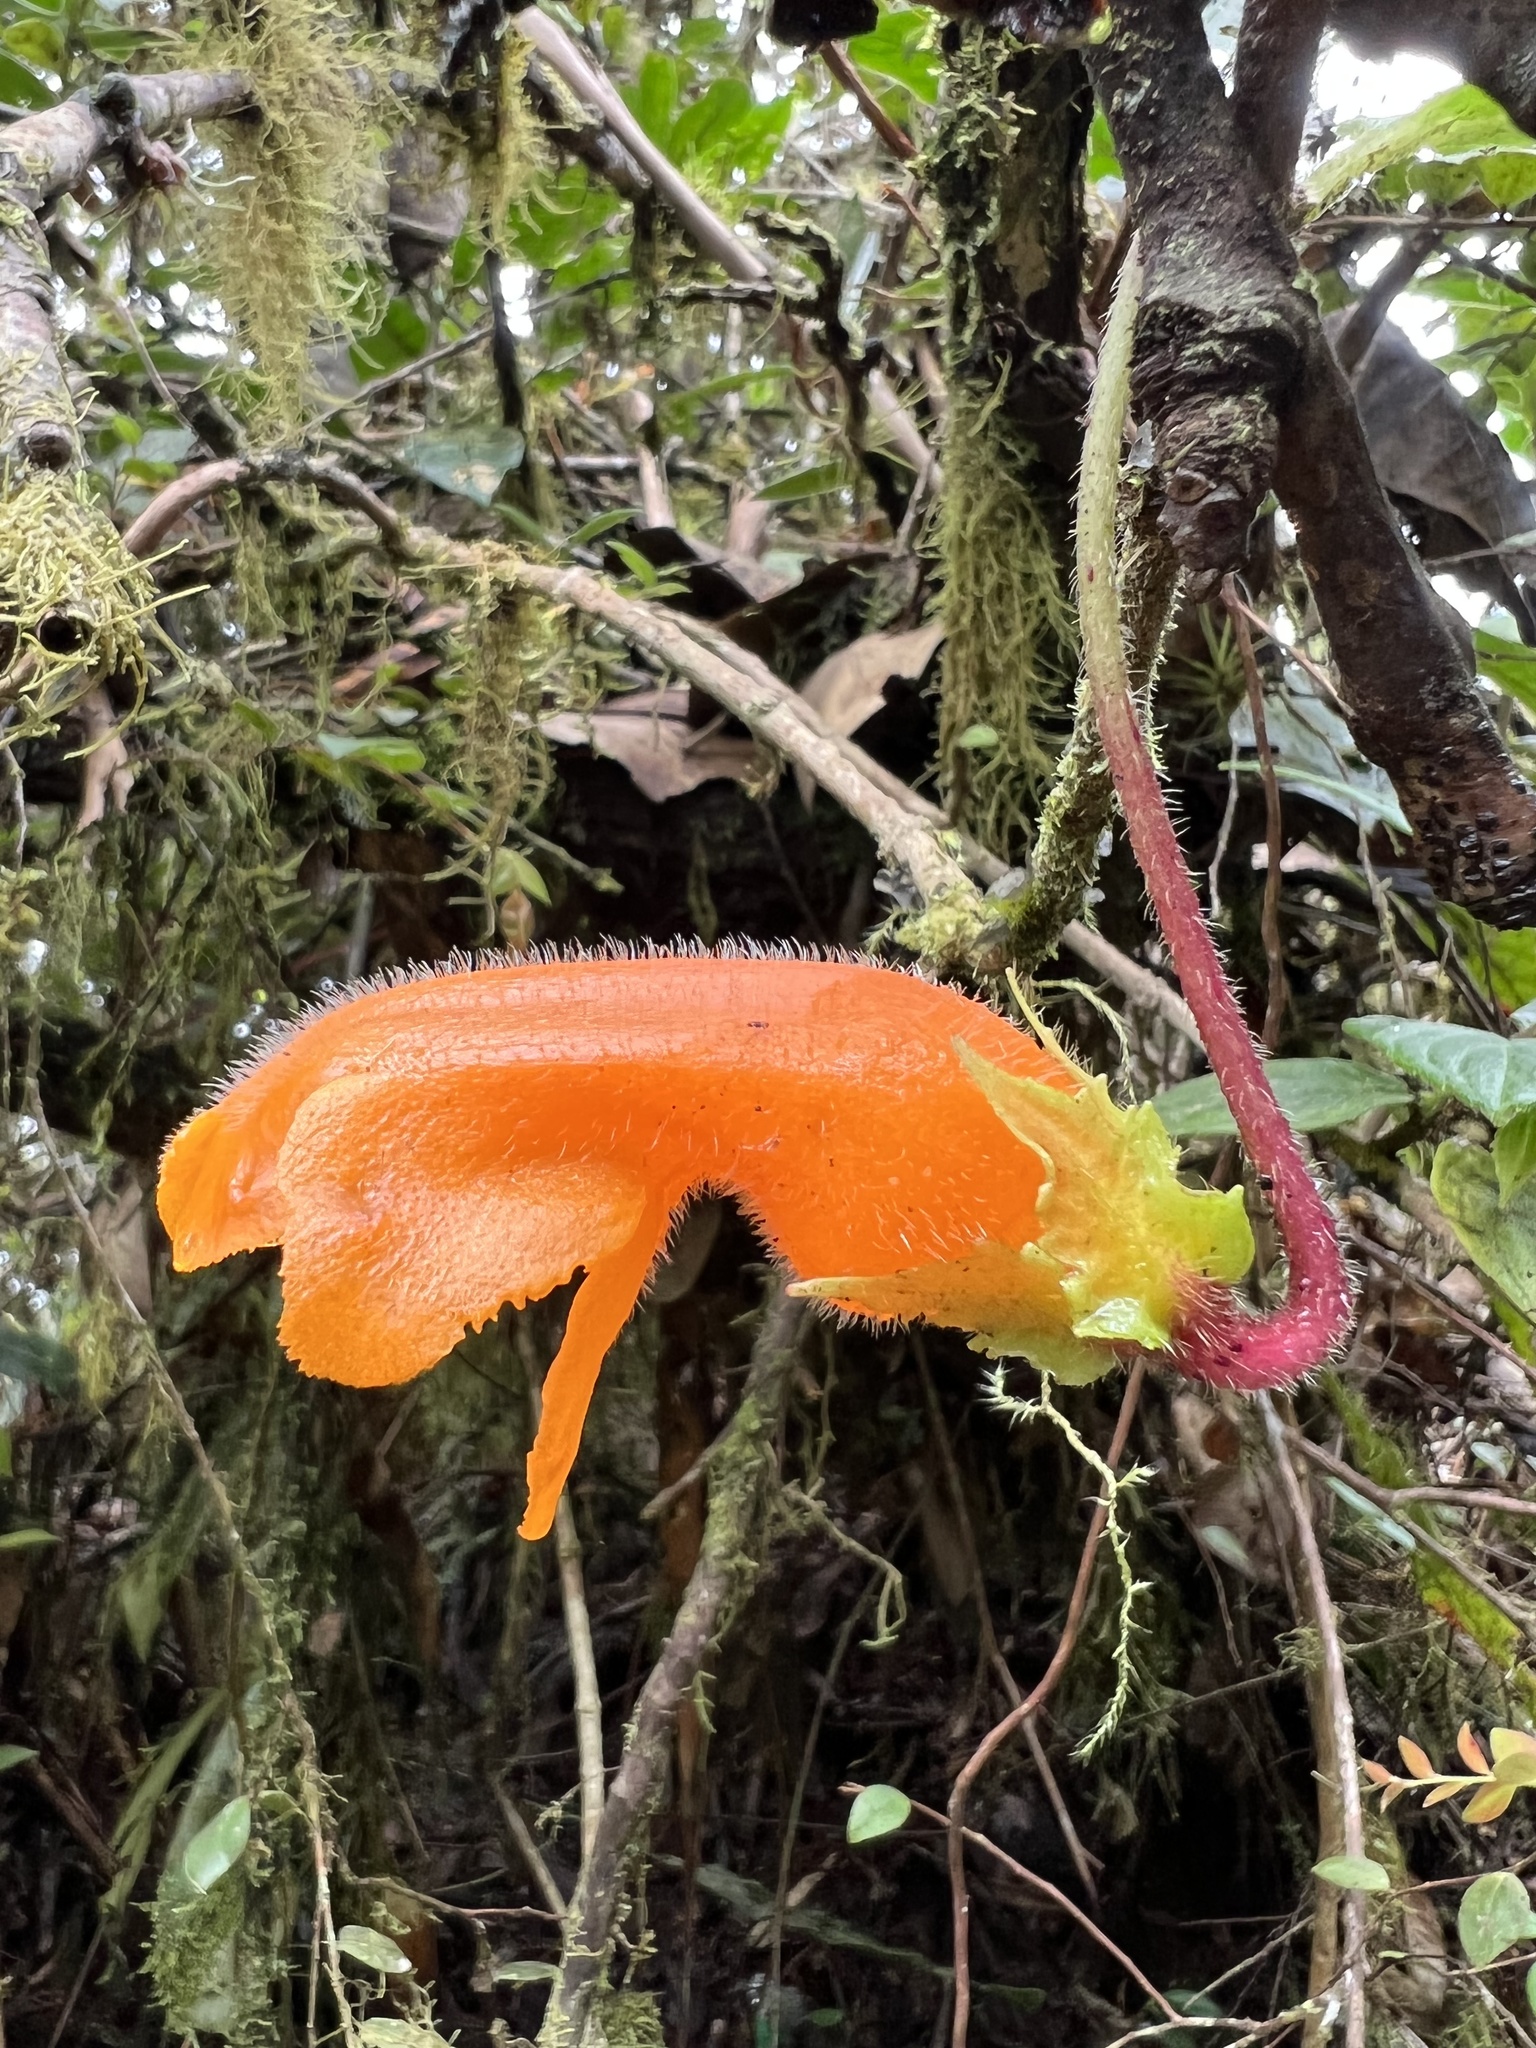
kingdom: Plantae
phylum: Tracheophyta
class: Magnoliopsida
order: Lamiales
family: Gesneriaceae
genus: Columnea
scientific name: Columnea strigosa
